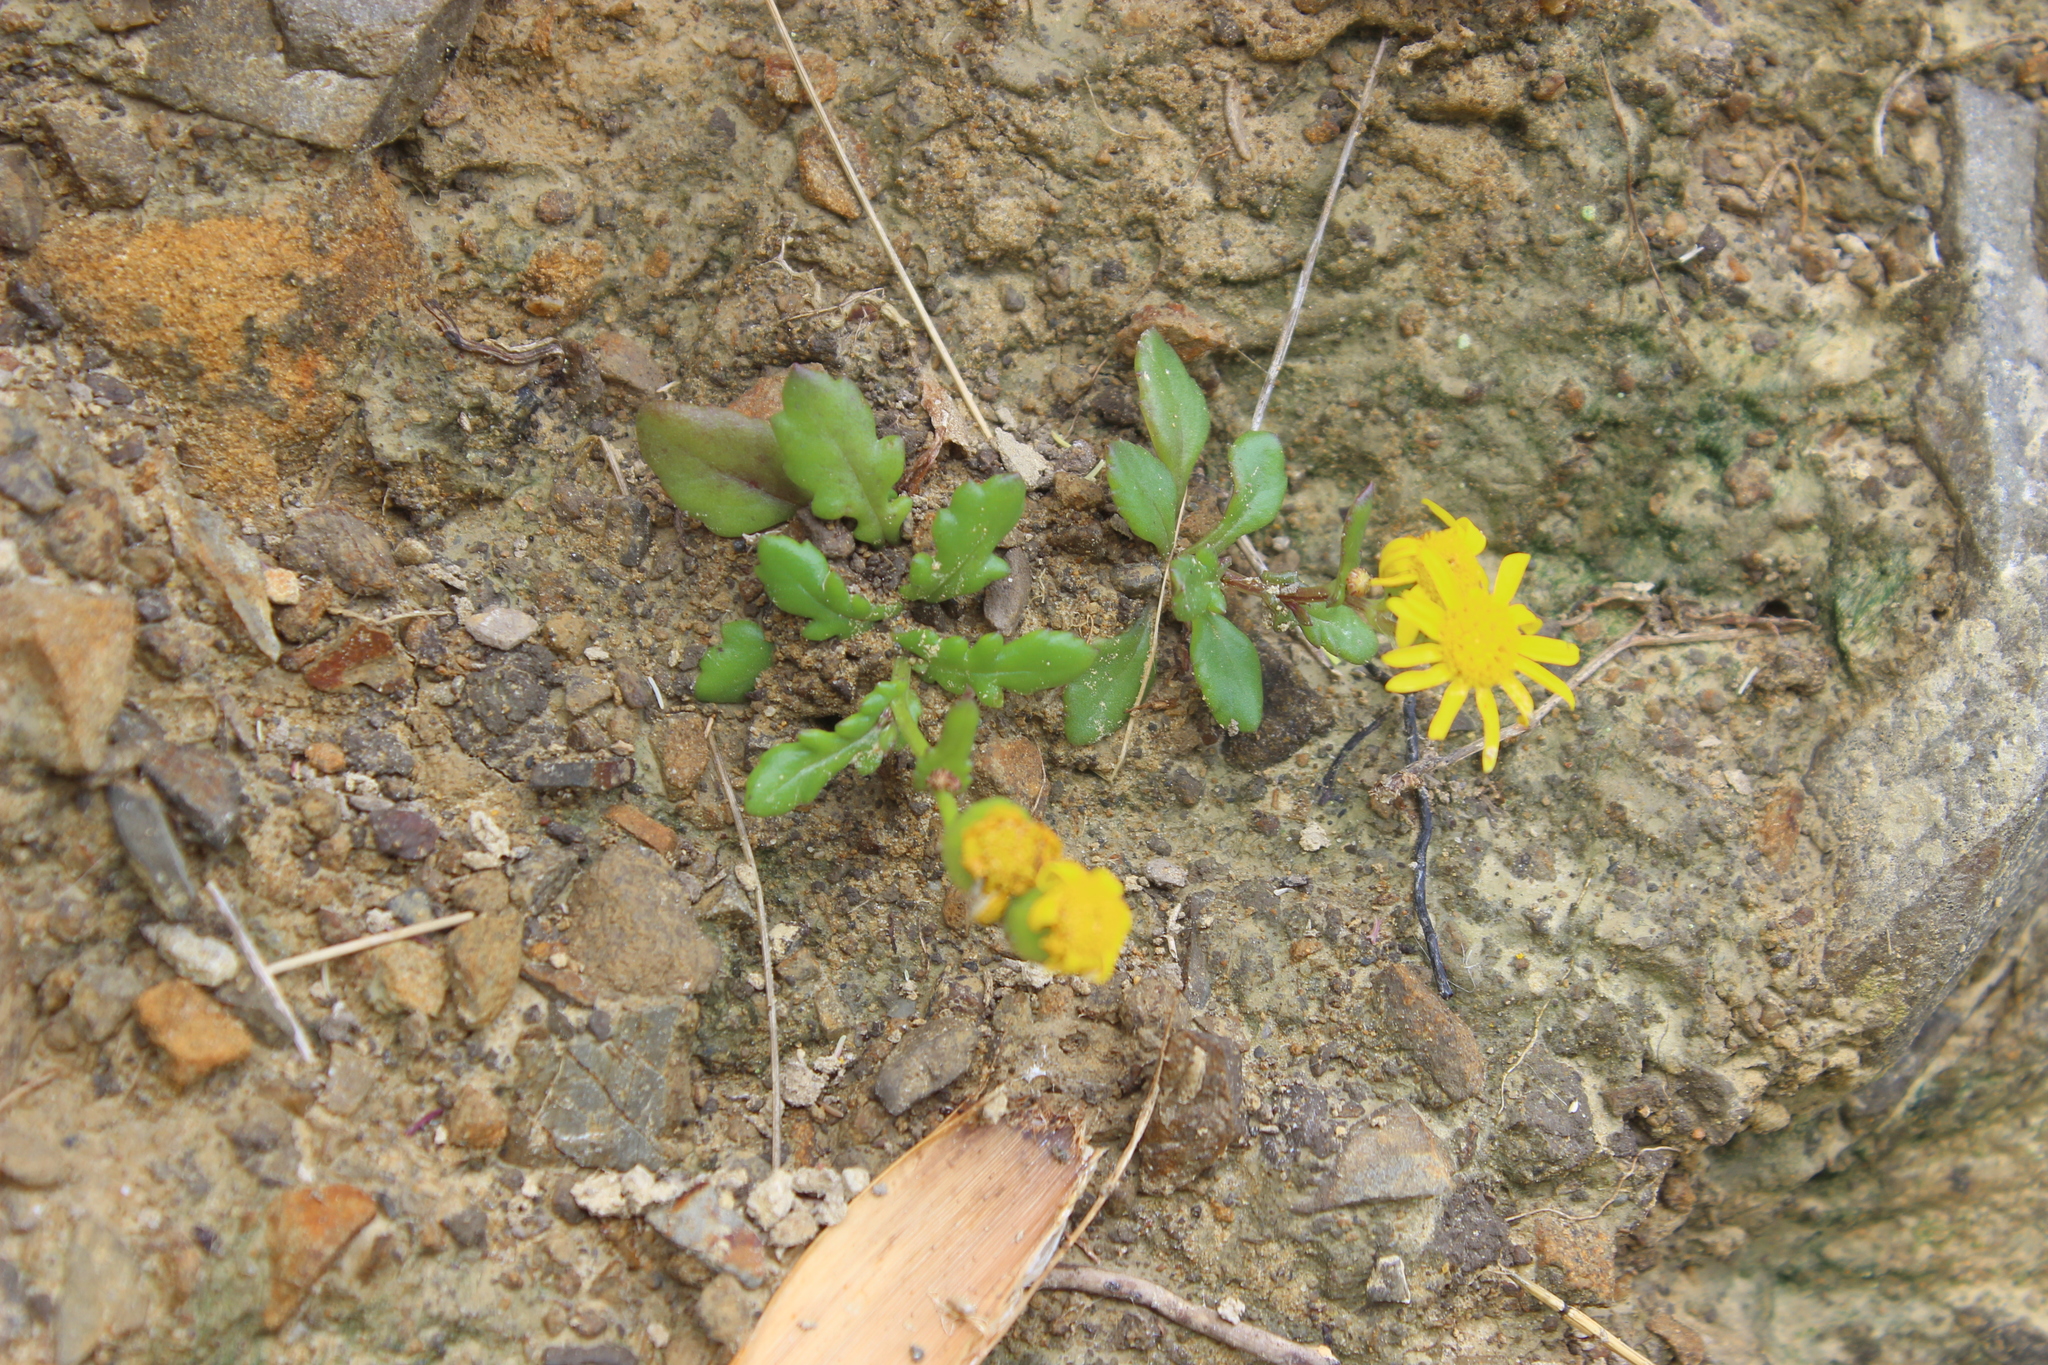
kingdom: Plantae
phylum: Tracheophyta
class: Magnoliopsida
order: Asterales
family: Asteraceae
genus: Senecio
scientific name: Senecio lautus
